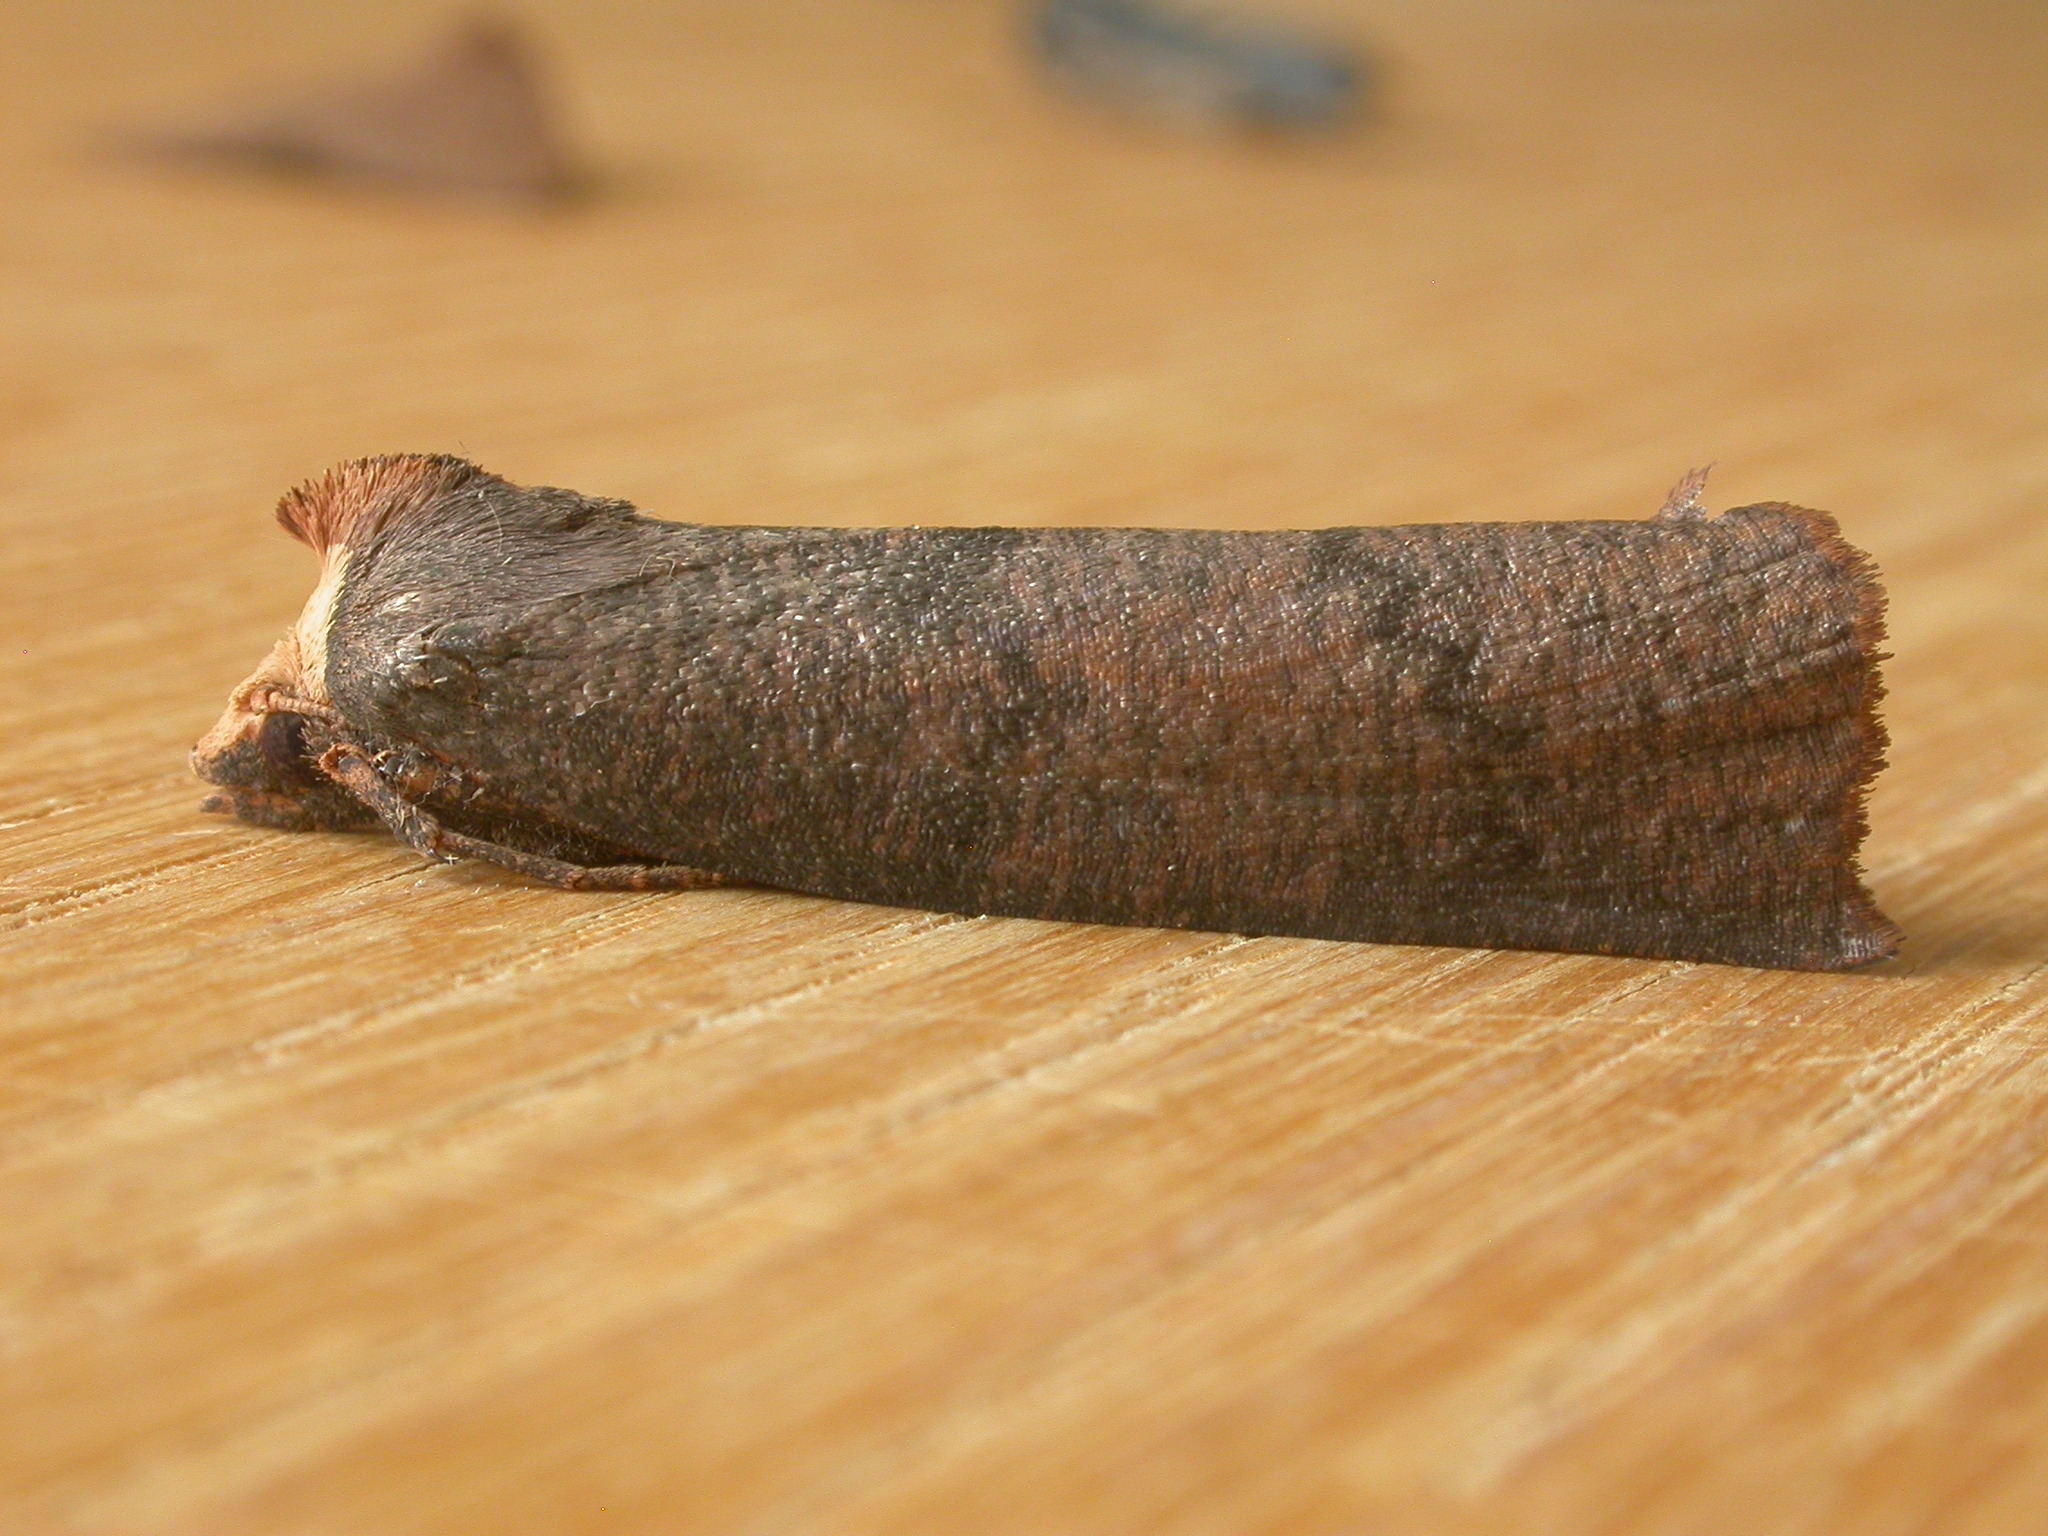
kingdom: Animalia
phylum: Arthropoda
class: Insecta
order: Lepidoptera
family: Geometridae
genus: Fisera
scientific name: Fisera eribola
